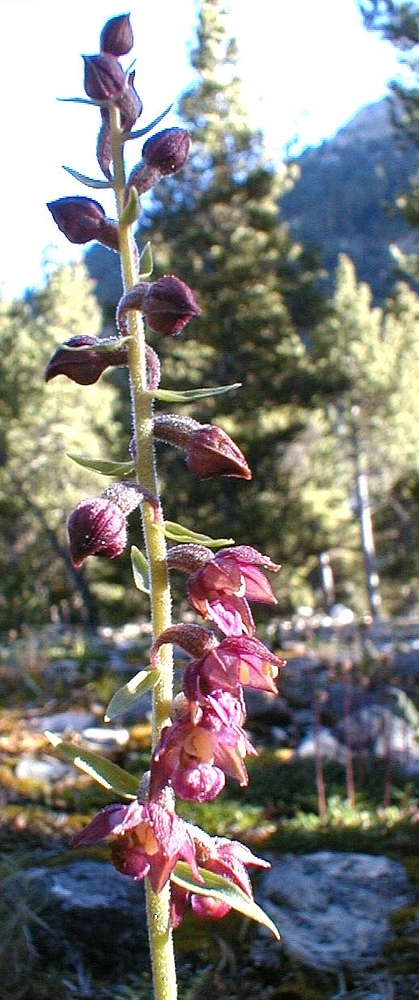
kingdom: Plantae
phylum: Tracheophyta
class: Liliopsida
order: Asparagales
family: Orchidaceae
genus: Epipactis
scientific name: Epipactis atrorubens
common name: Dark-red helleborine
